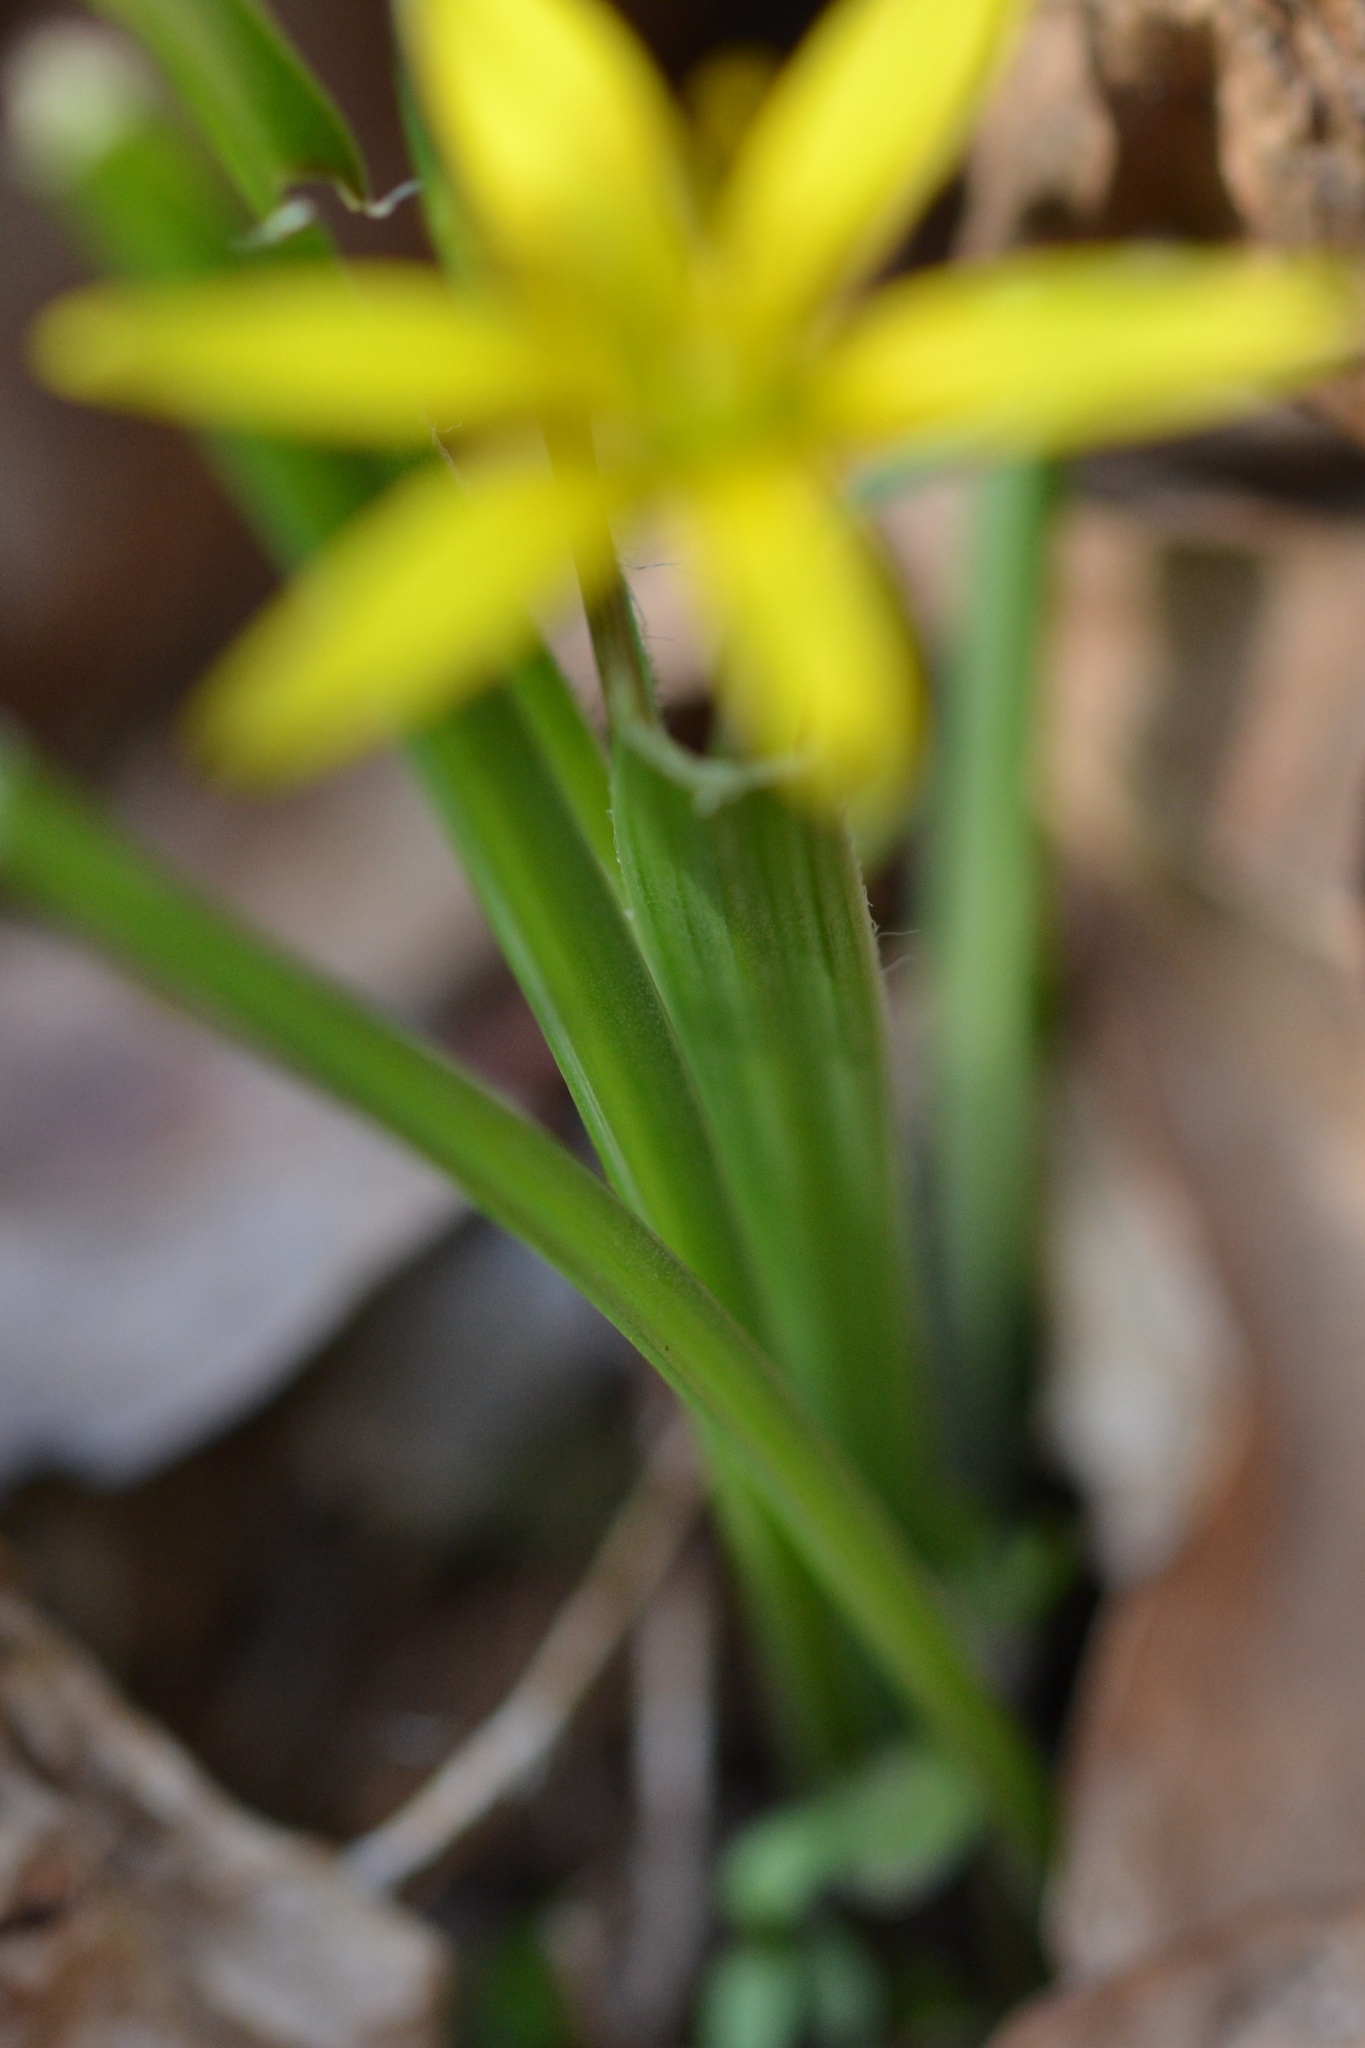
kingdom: Plantae
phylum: Tracheophyta
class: Liliopsida
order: Liliales
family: Liliaceae
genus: Gagea
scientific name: Gagea pratensis
